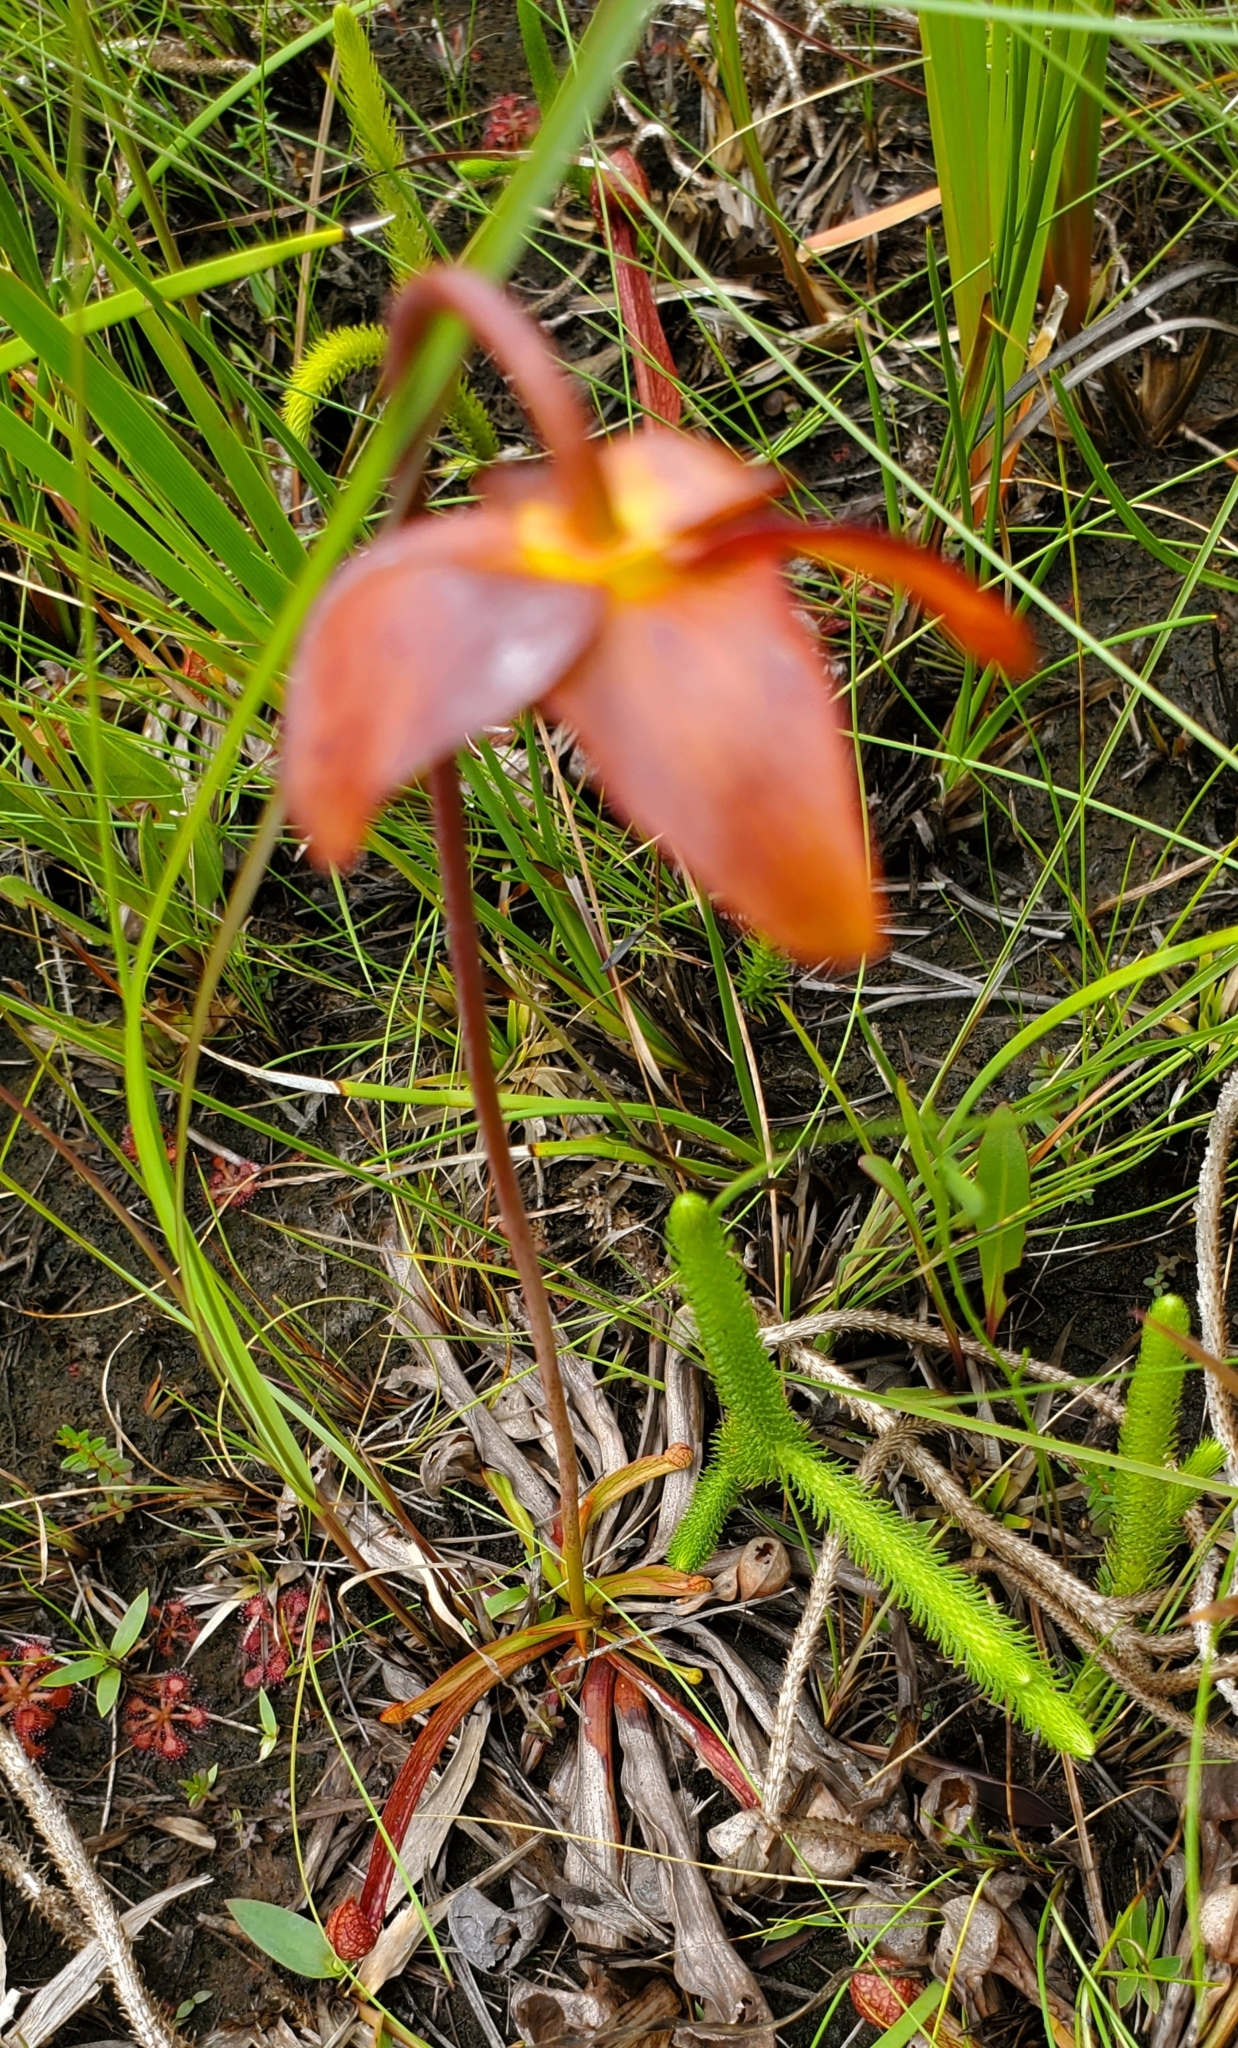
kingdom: Plantae
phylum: Tracheophyta
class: Magnoliopsida
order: Ericales
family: Sarraceniaceae
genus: Sarracenia
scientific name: Sarracenia psittacina
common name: Parrot pitcherplant
